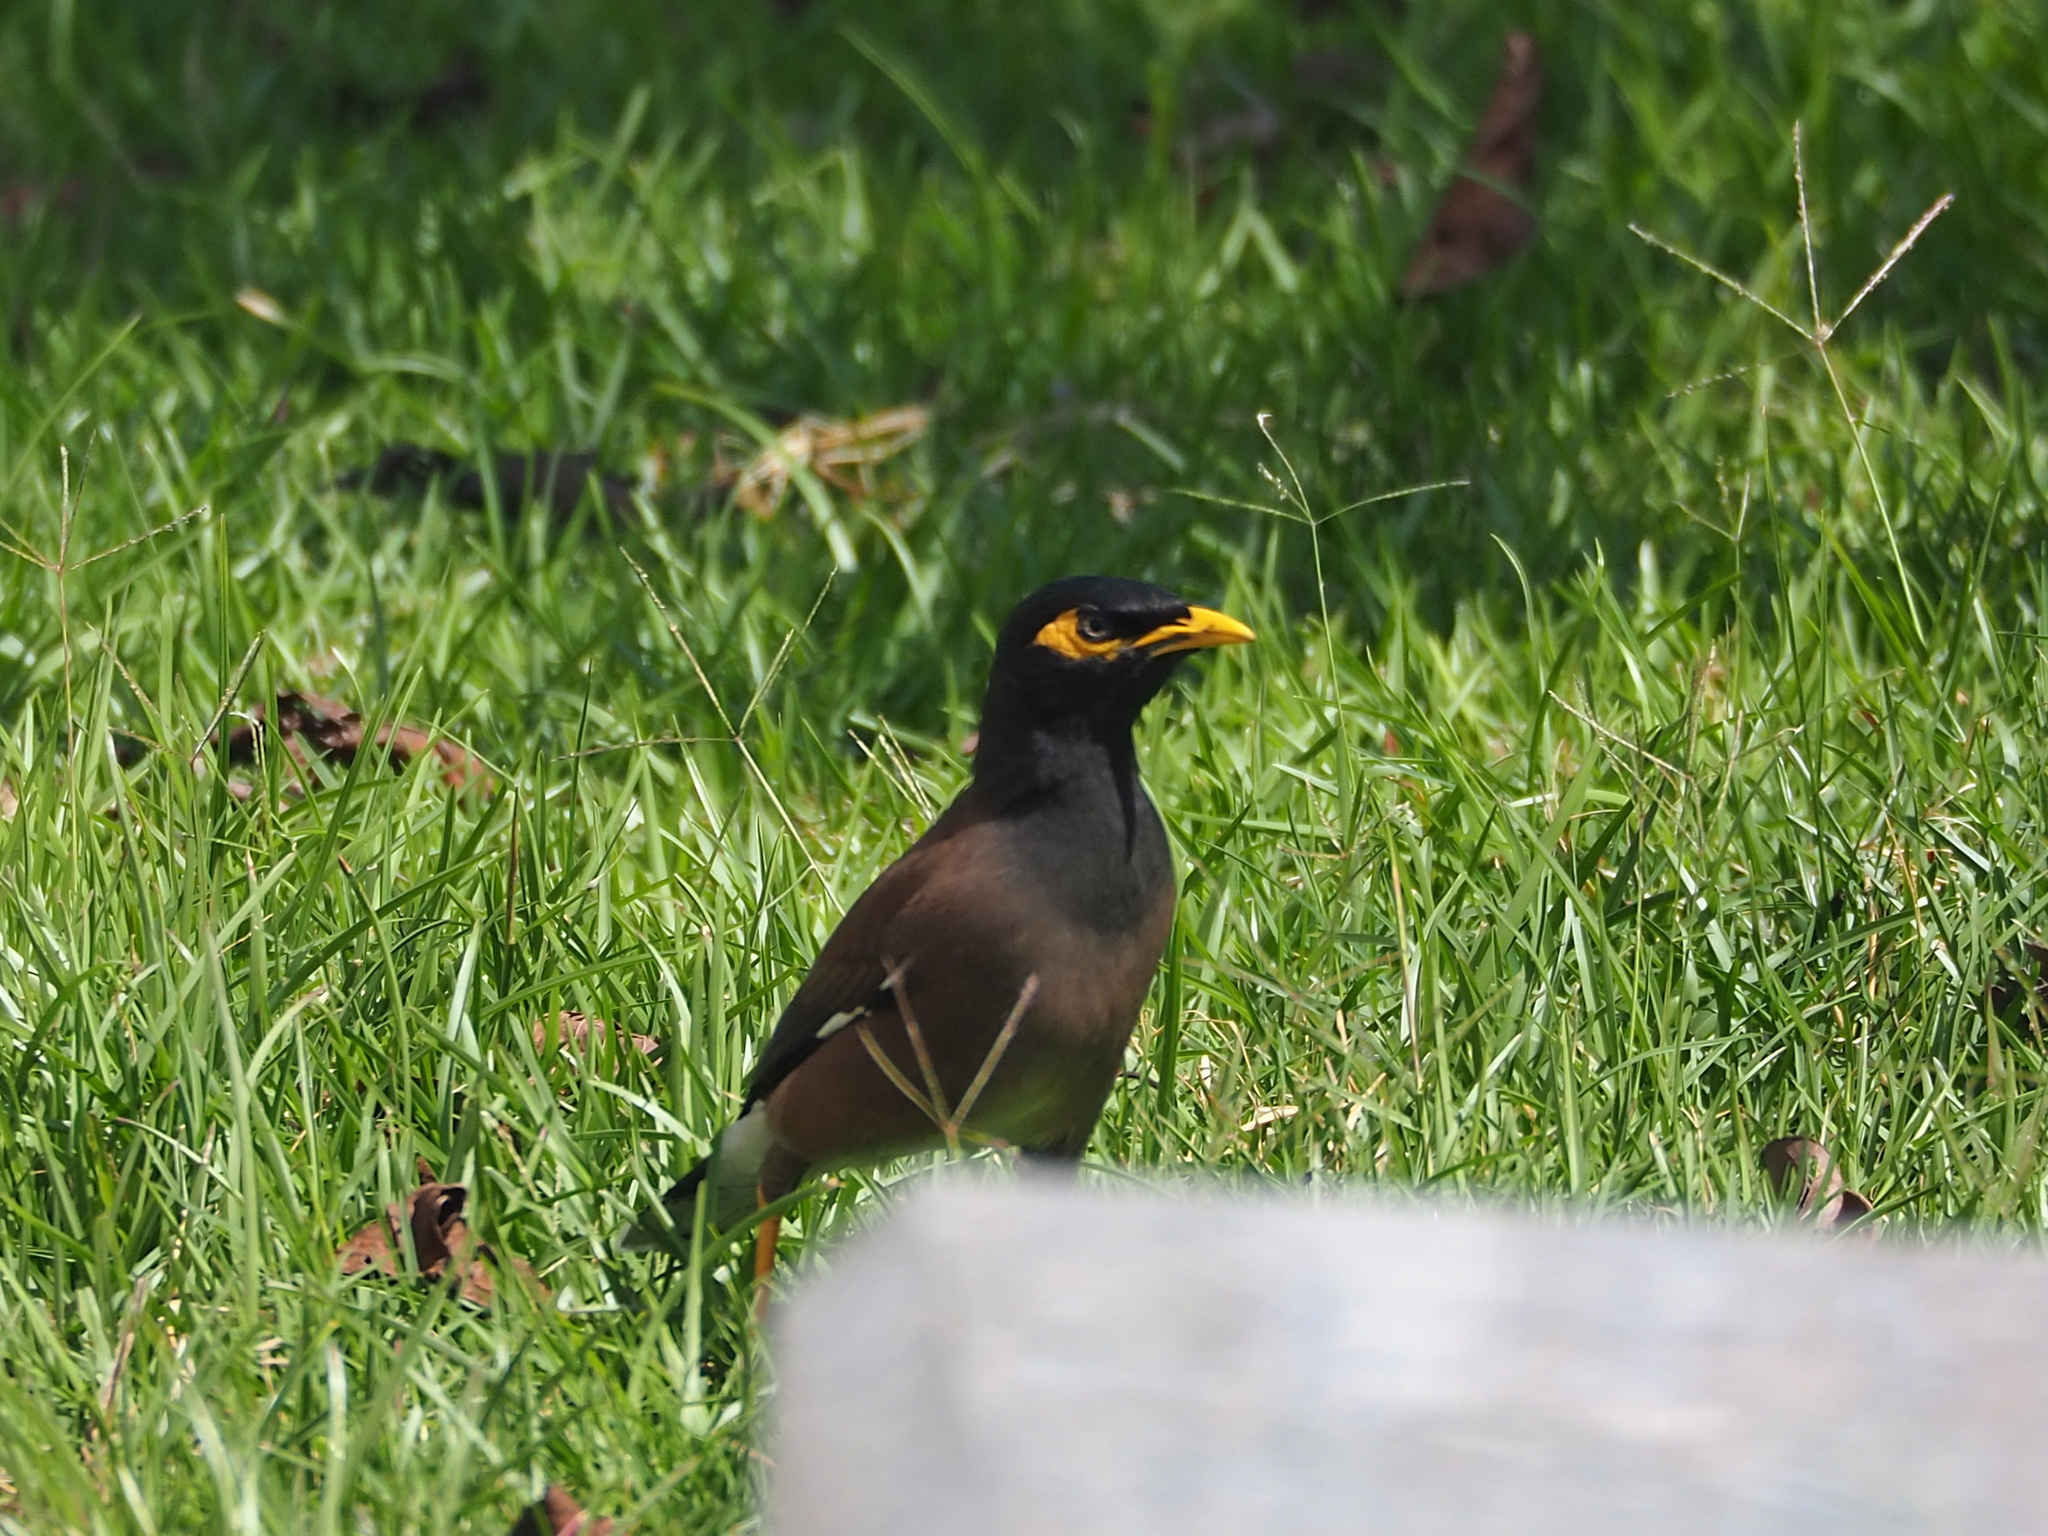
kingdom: Animalia
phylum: Chordata
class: Aves
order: Passeriformes
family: Sturnidae
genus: Acridotheres
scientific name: Acridotheres tristis
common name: Common myna
